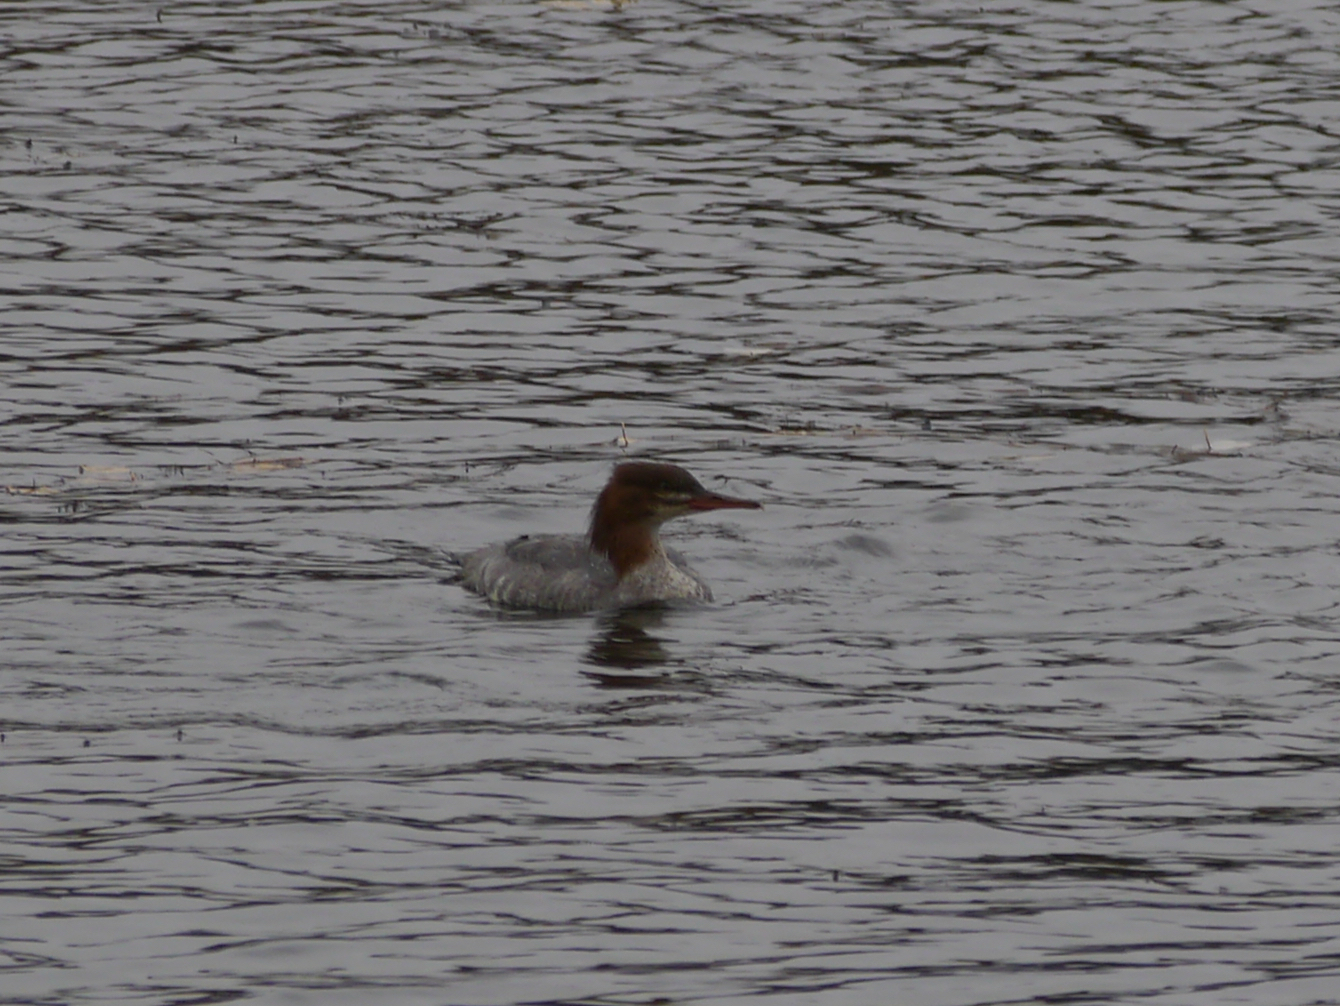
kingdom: Animalia
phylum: Chordata
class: Aves
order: Anseriformes
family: Anatidae
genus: Mergus
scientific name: Mergus merganser
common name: Common merganser
